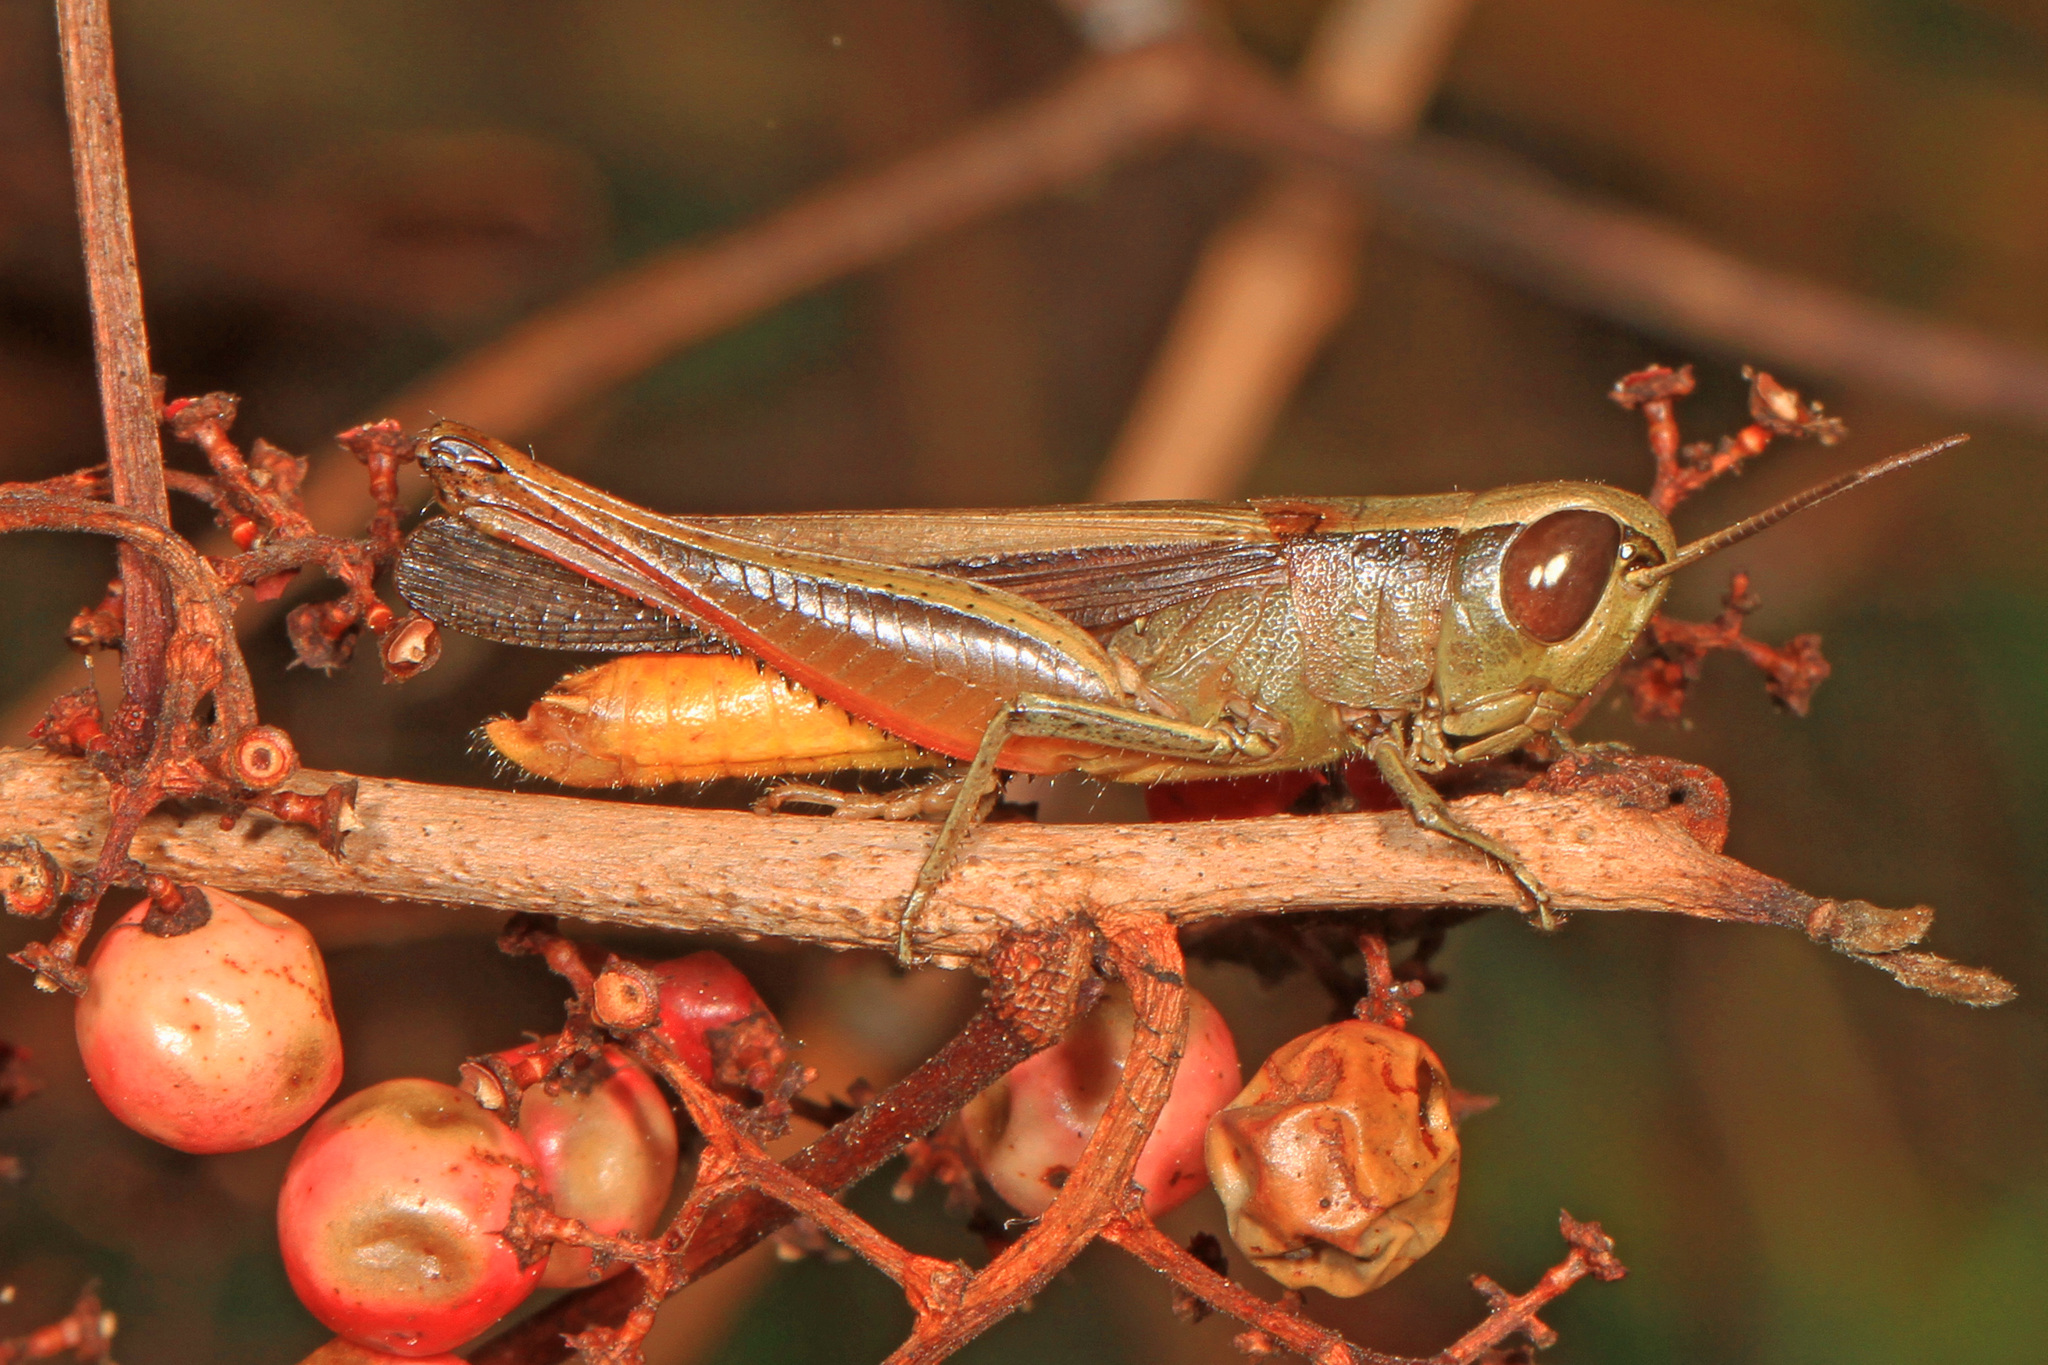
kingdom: Animalia
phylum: Arthropoda
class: Insecta
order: Orthoptera
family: Acrididae
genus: Amblytropidia
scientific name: Amblytropidia mysteca
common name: Brown winter grasshopper
